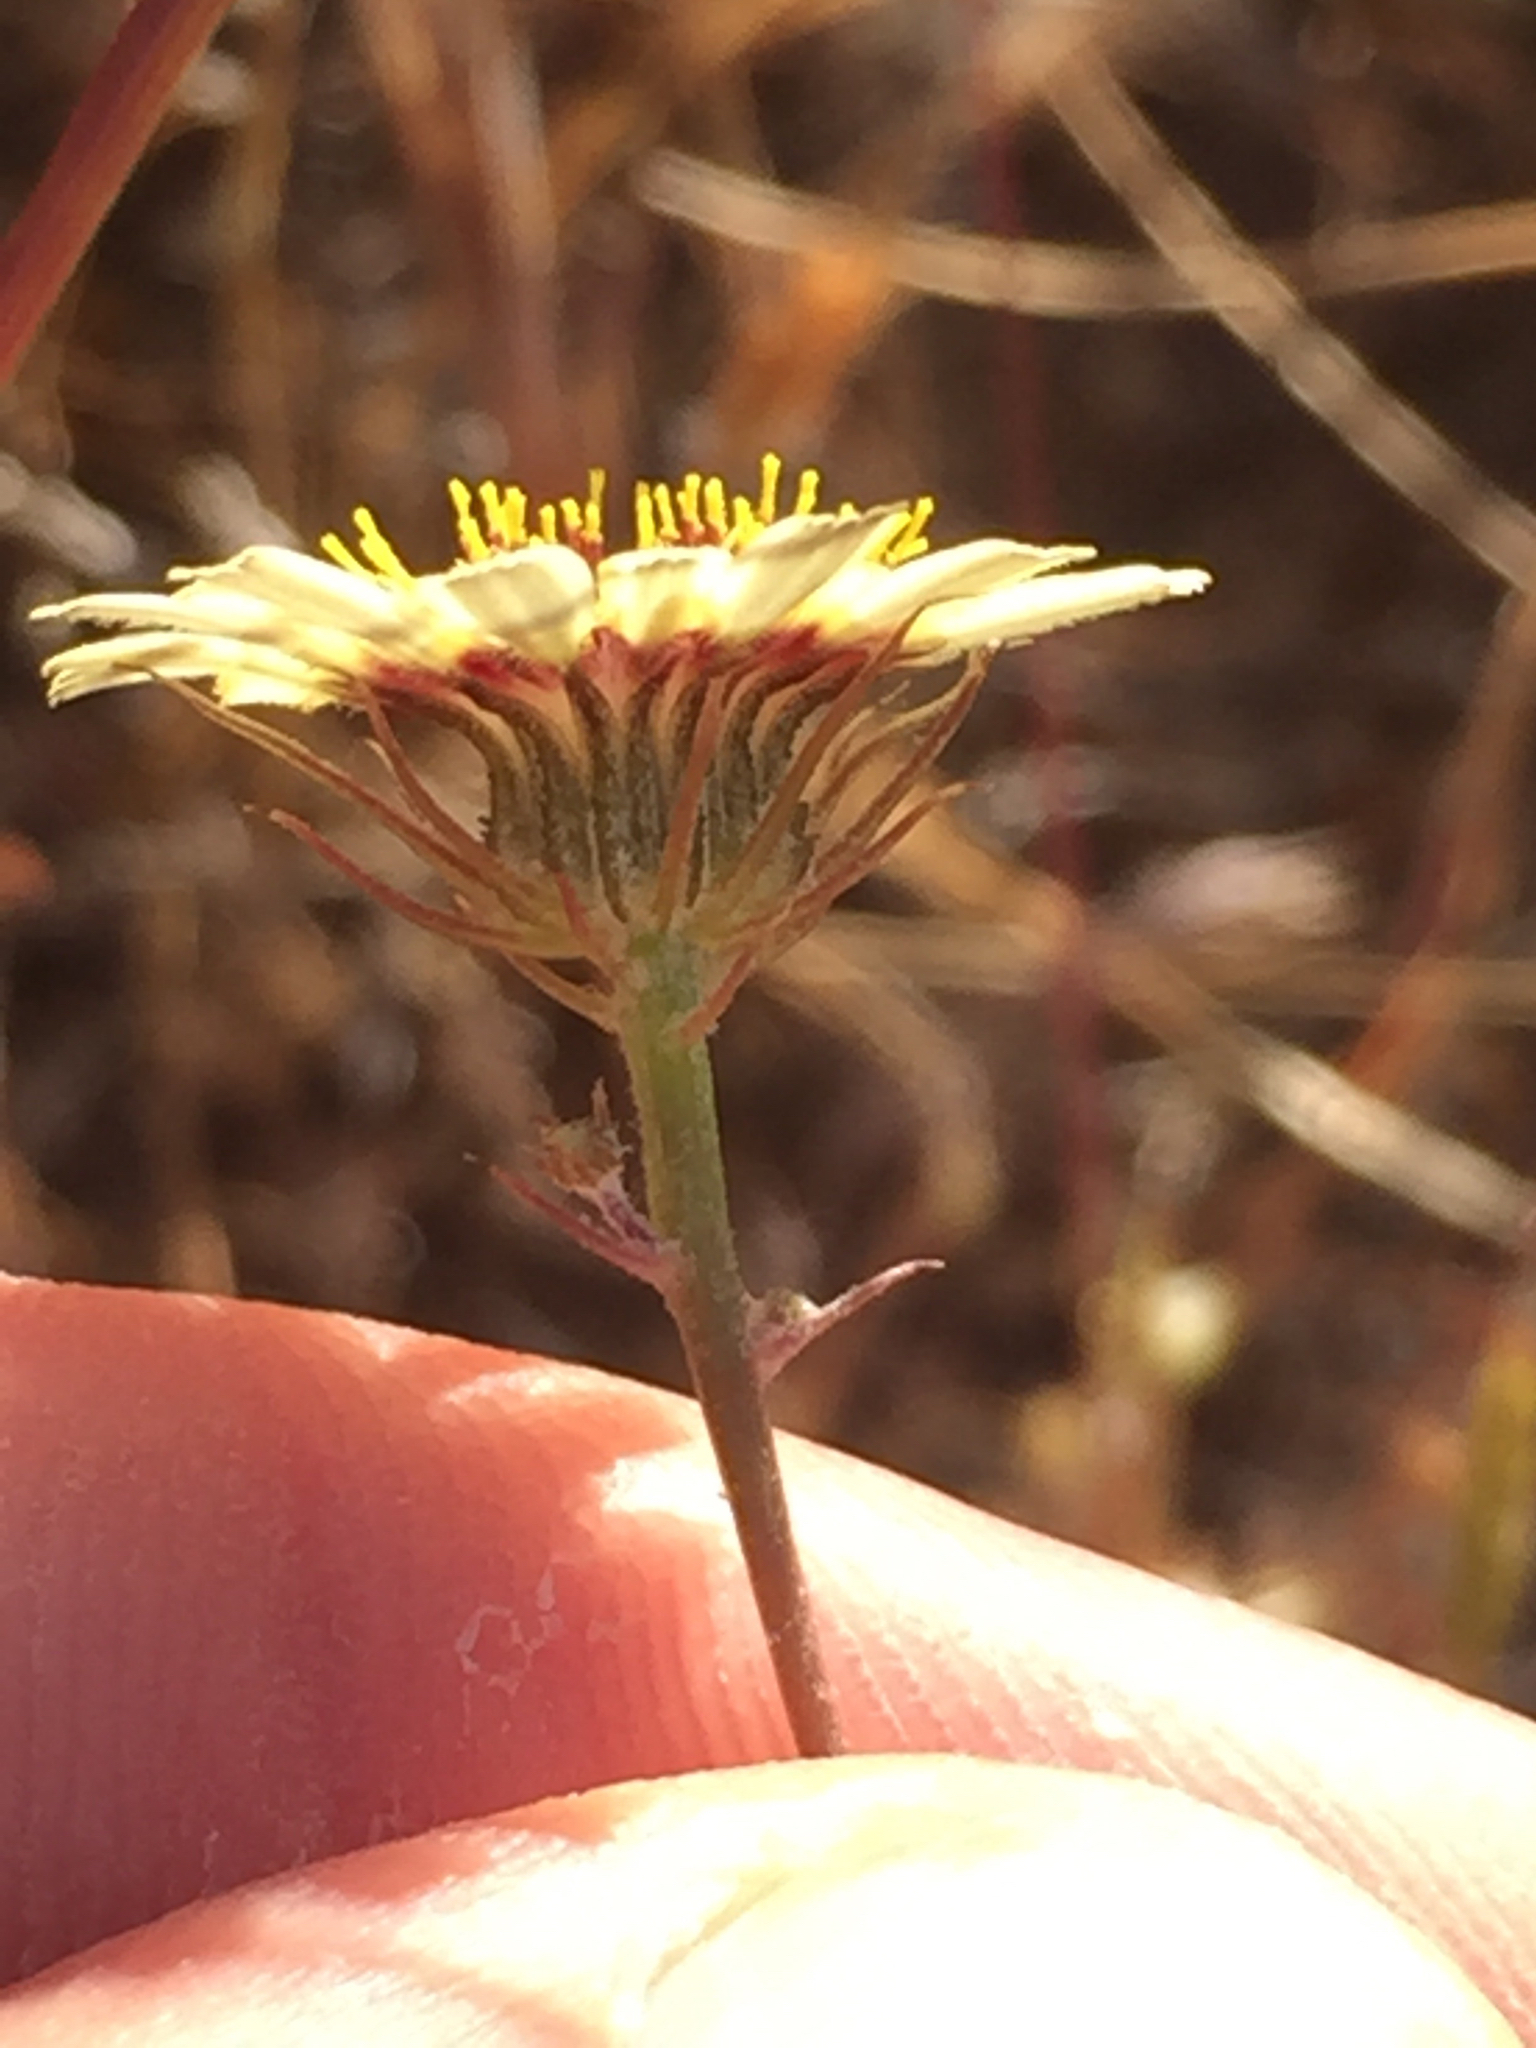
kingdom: Plantae
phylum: Tracheophyta
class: Magnoliopsida
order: Asterales
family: Asteraceae
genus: Tolpis
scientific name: Tolpis barbata
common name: Yellow hawkweed
